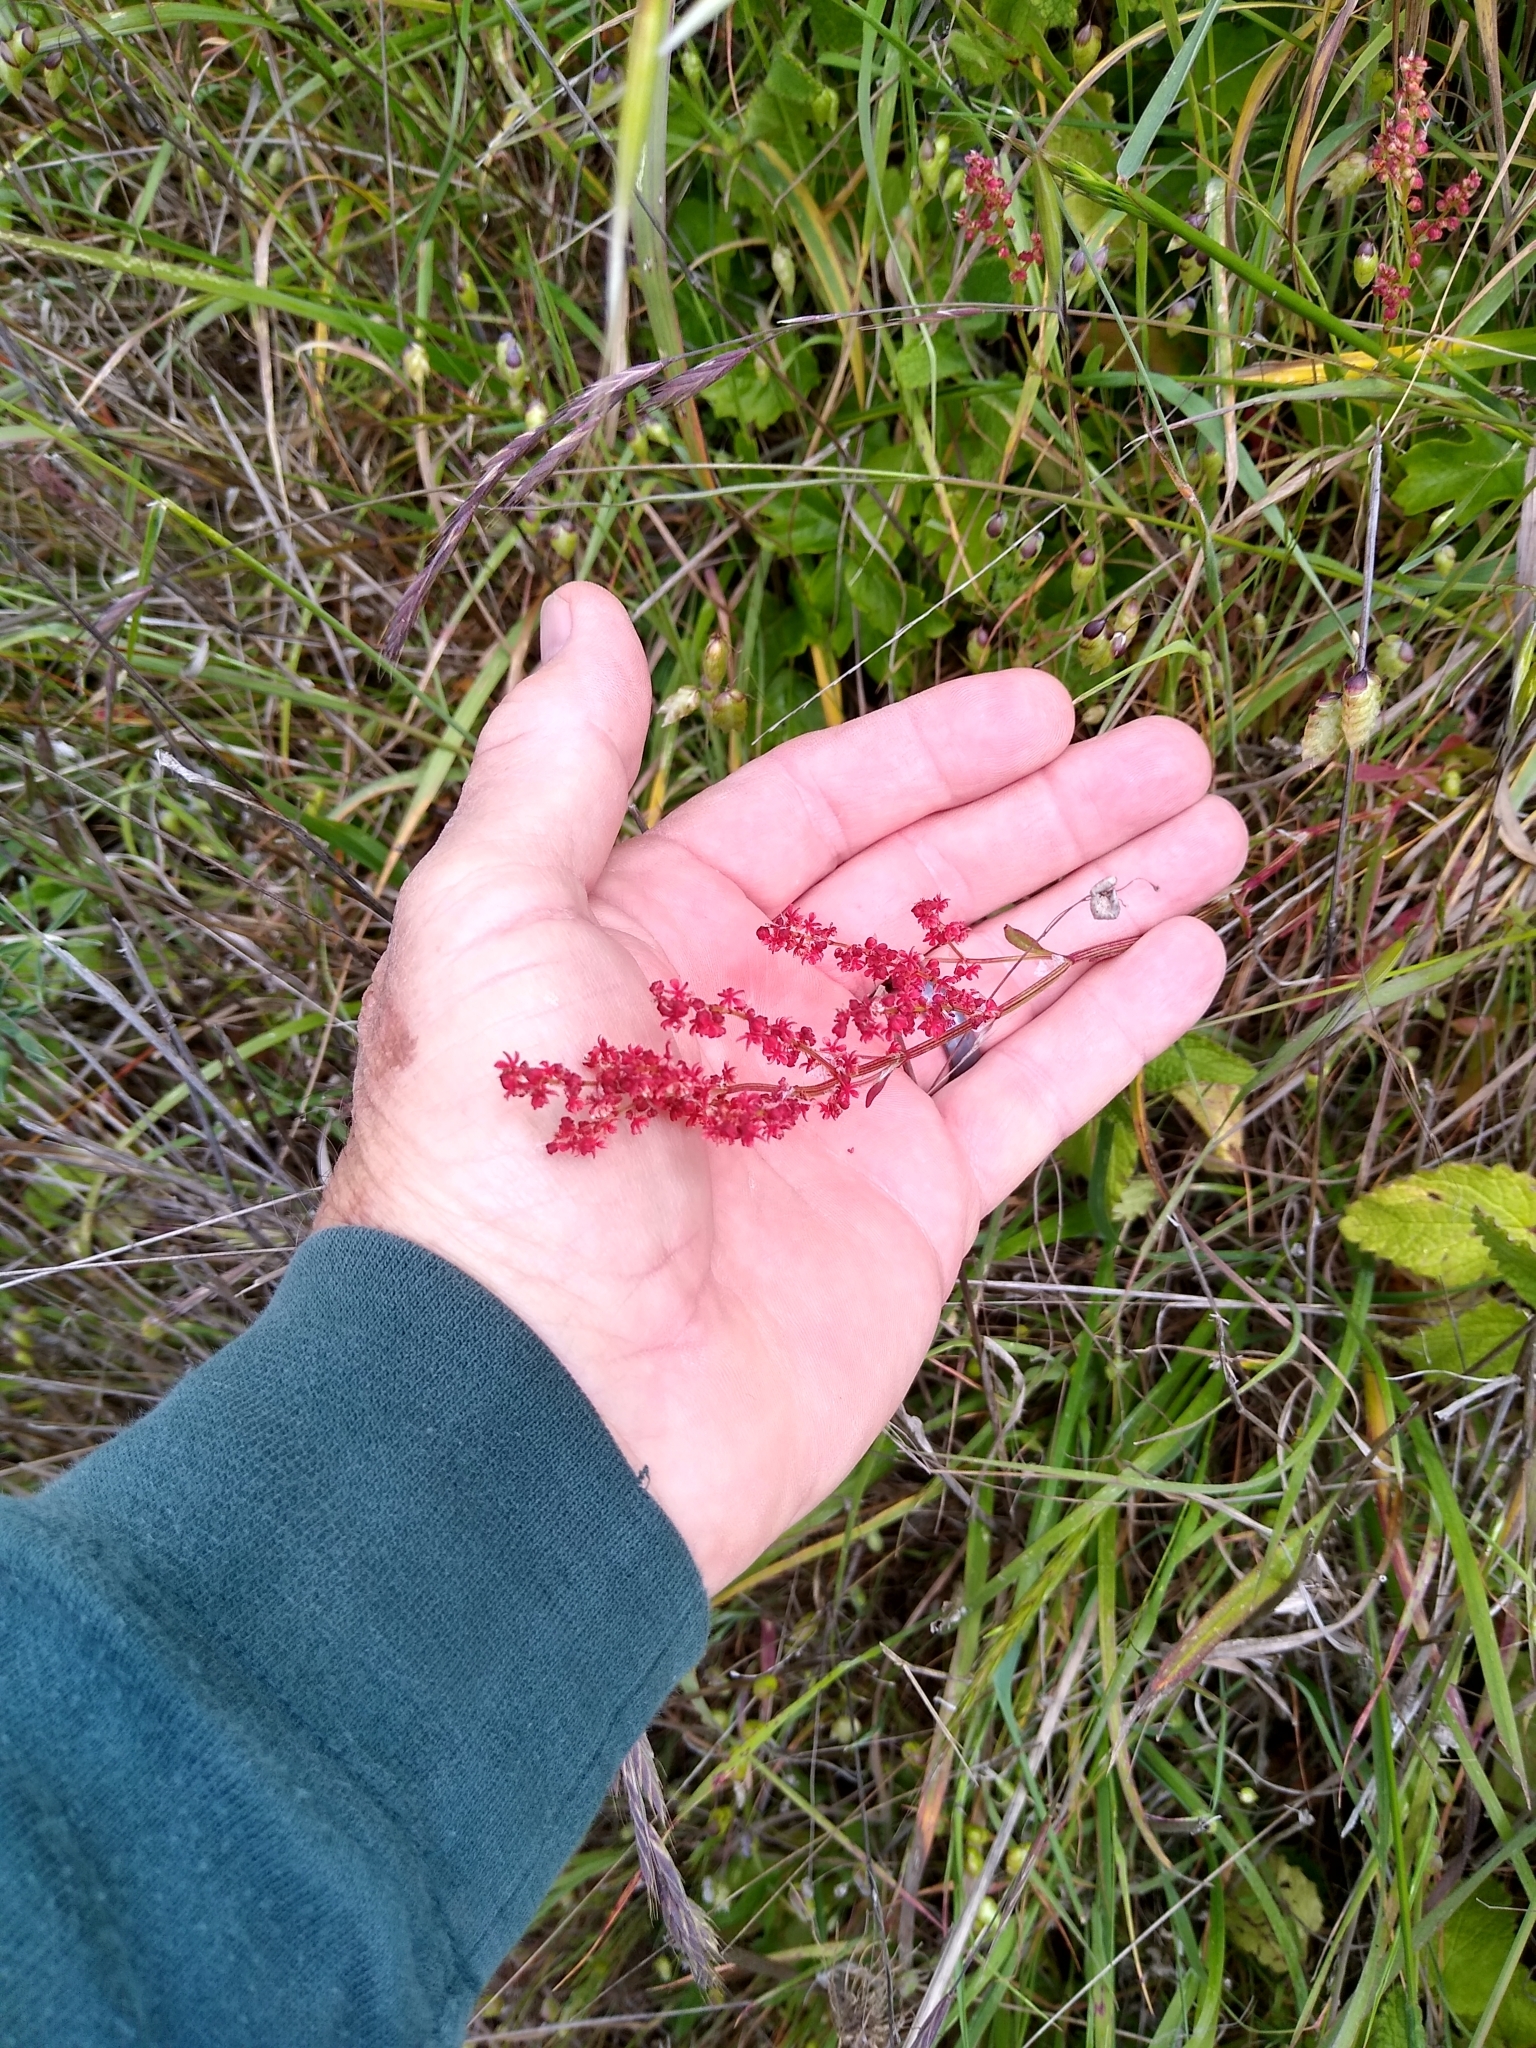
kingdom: Plantae
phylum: Tracheophyta
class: Magnoliopsida
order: Caryophyllales
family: Polygonaceae
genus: Rumex
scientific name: Rumex acetosella
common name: Common sheep sorrel
